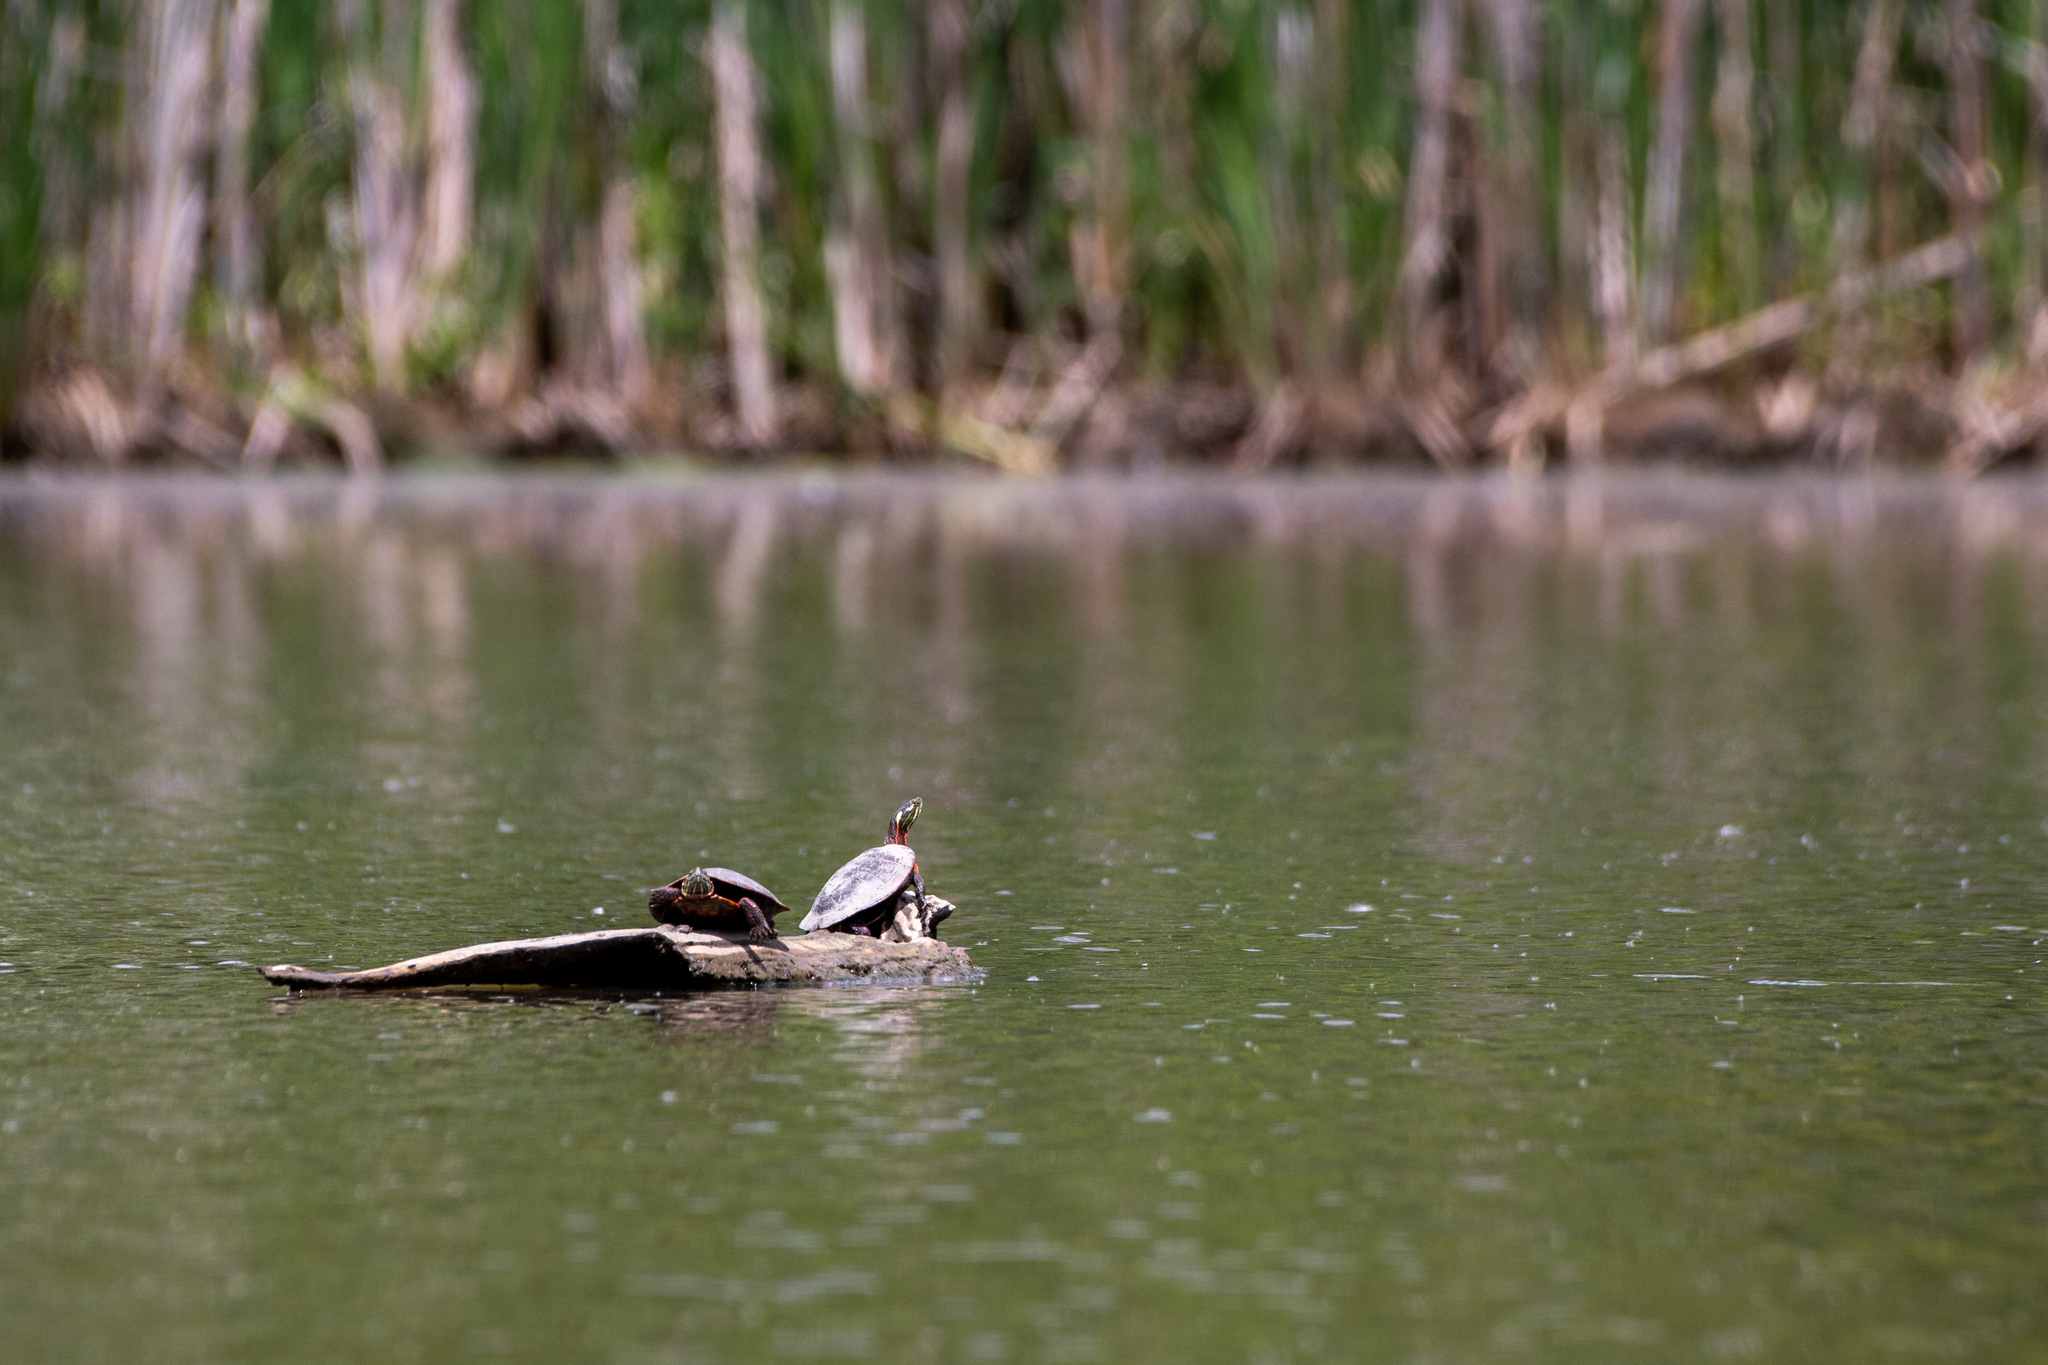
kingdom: Animalia
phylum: Chordata
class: Testudines
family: Emydidae
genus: Chrysemys
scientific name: Chrysemys picta
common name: Painted turtle
